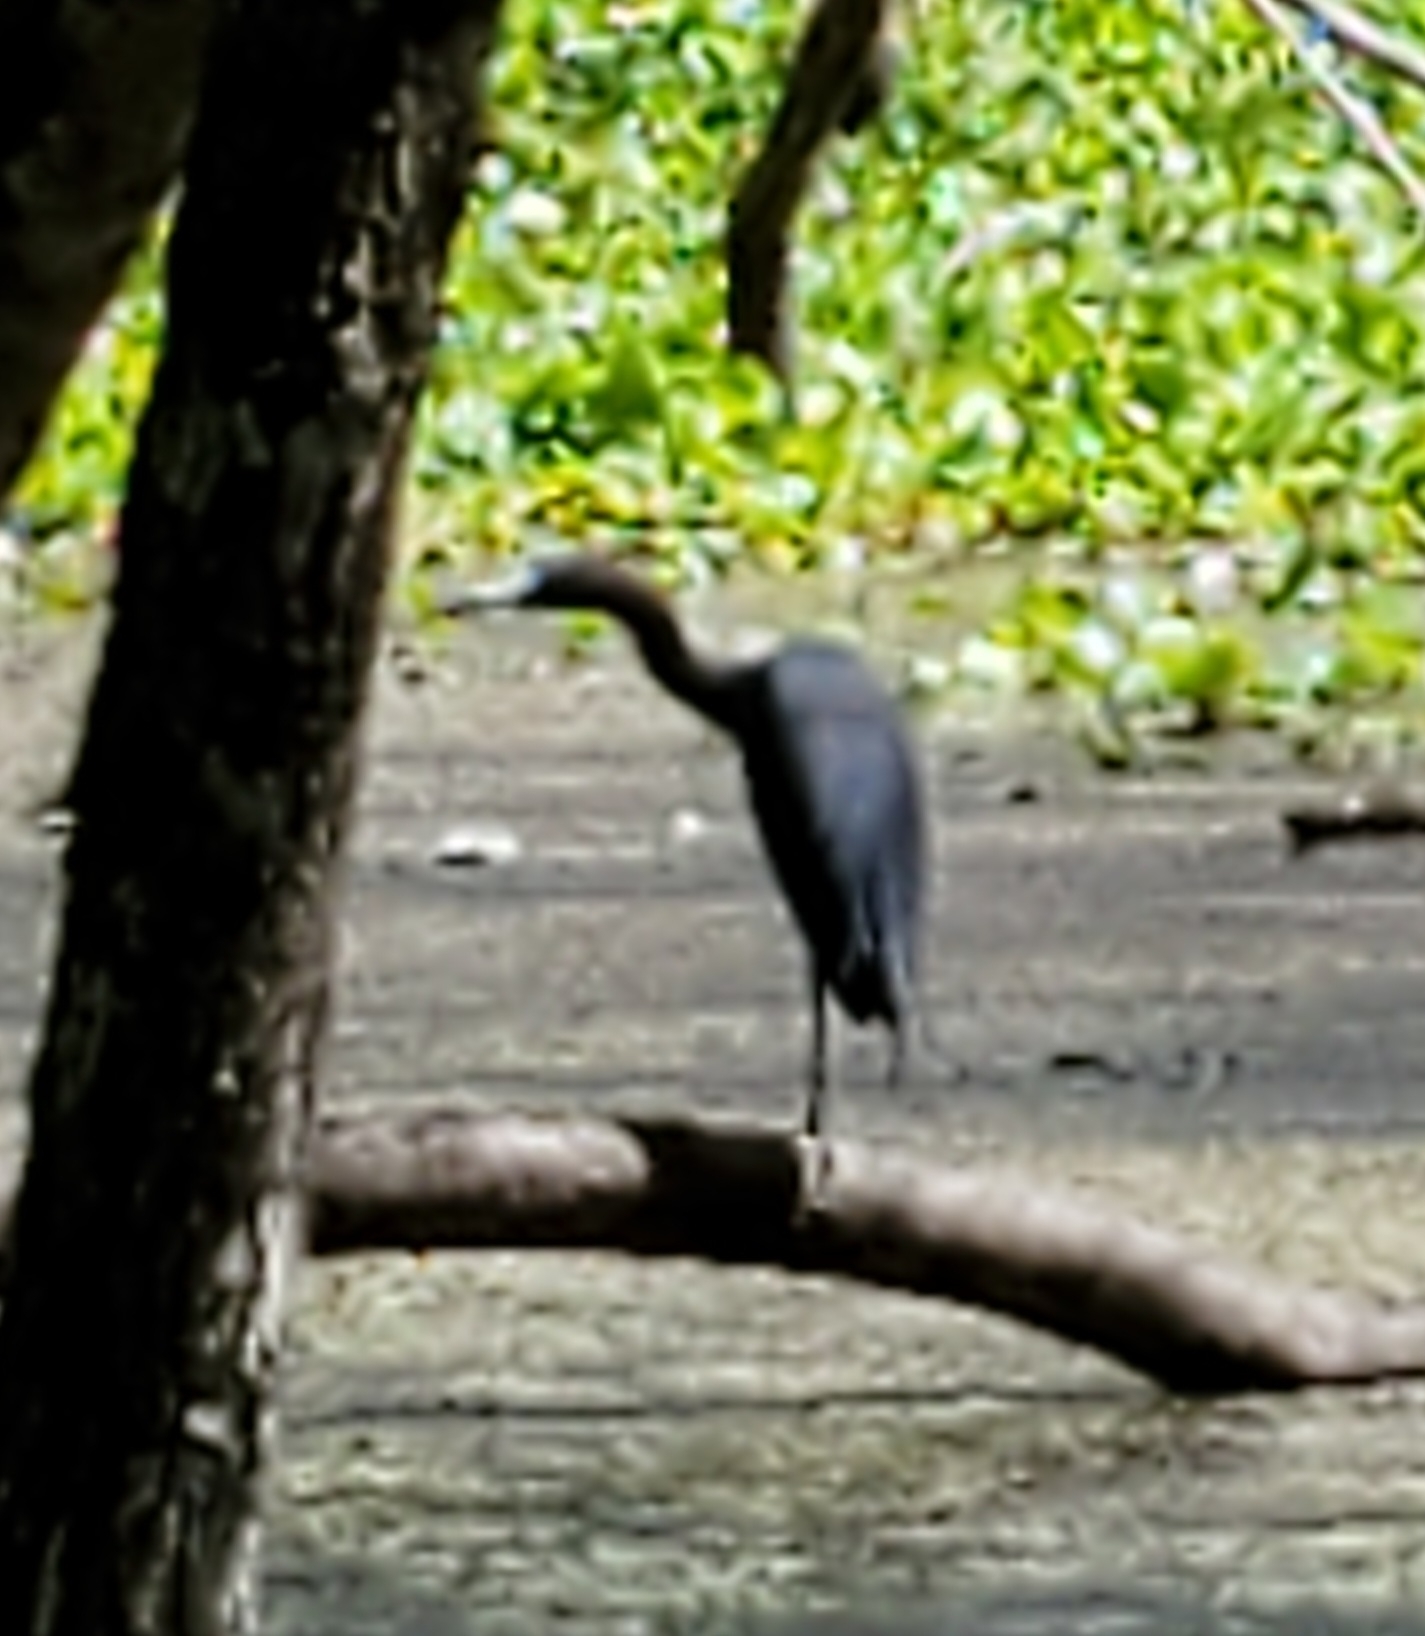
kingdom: Animalia
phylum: Chordata
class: Aves
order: Pelecaniformes
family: Ardeidae
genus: Egretta
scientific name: Egretta caerulea
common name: Little blue heron
